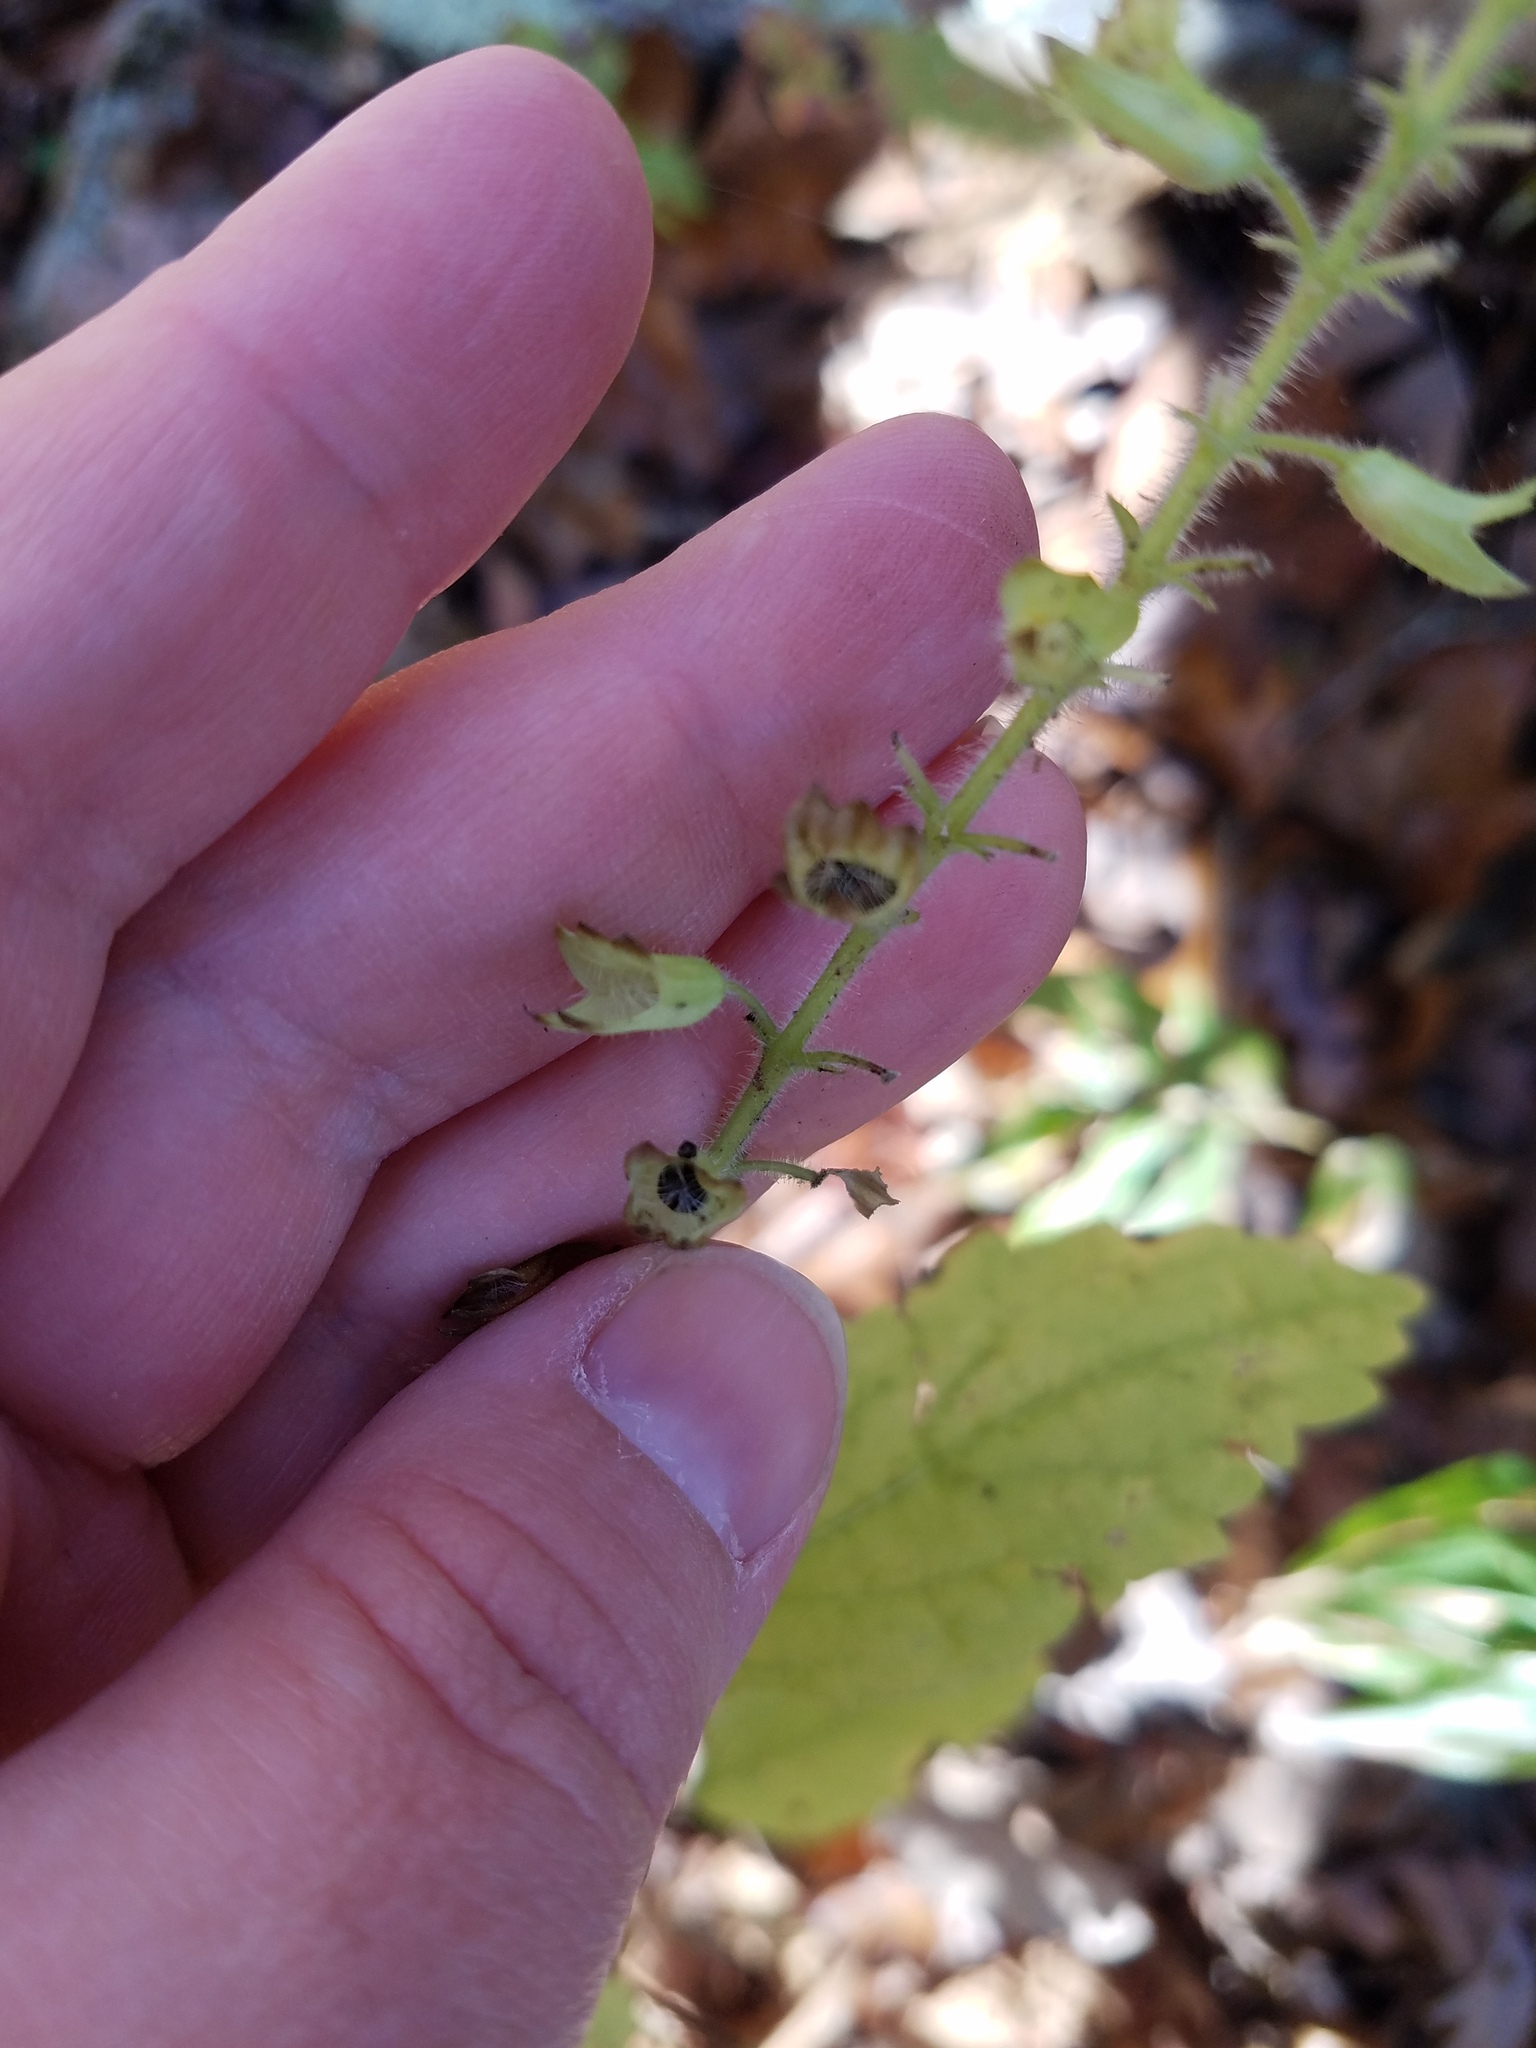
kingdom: Plantae
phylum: Tracheophyta
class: Magnoliopsida
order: Lamiales
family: Lamiaceae
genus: Collinsonia
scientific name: Collinsonia anisata
